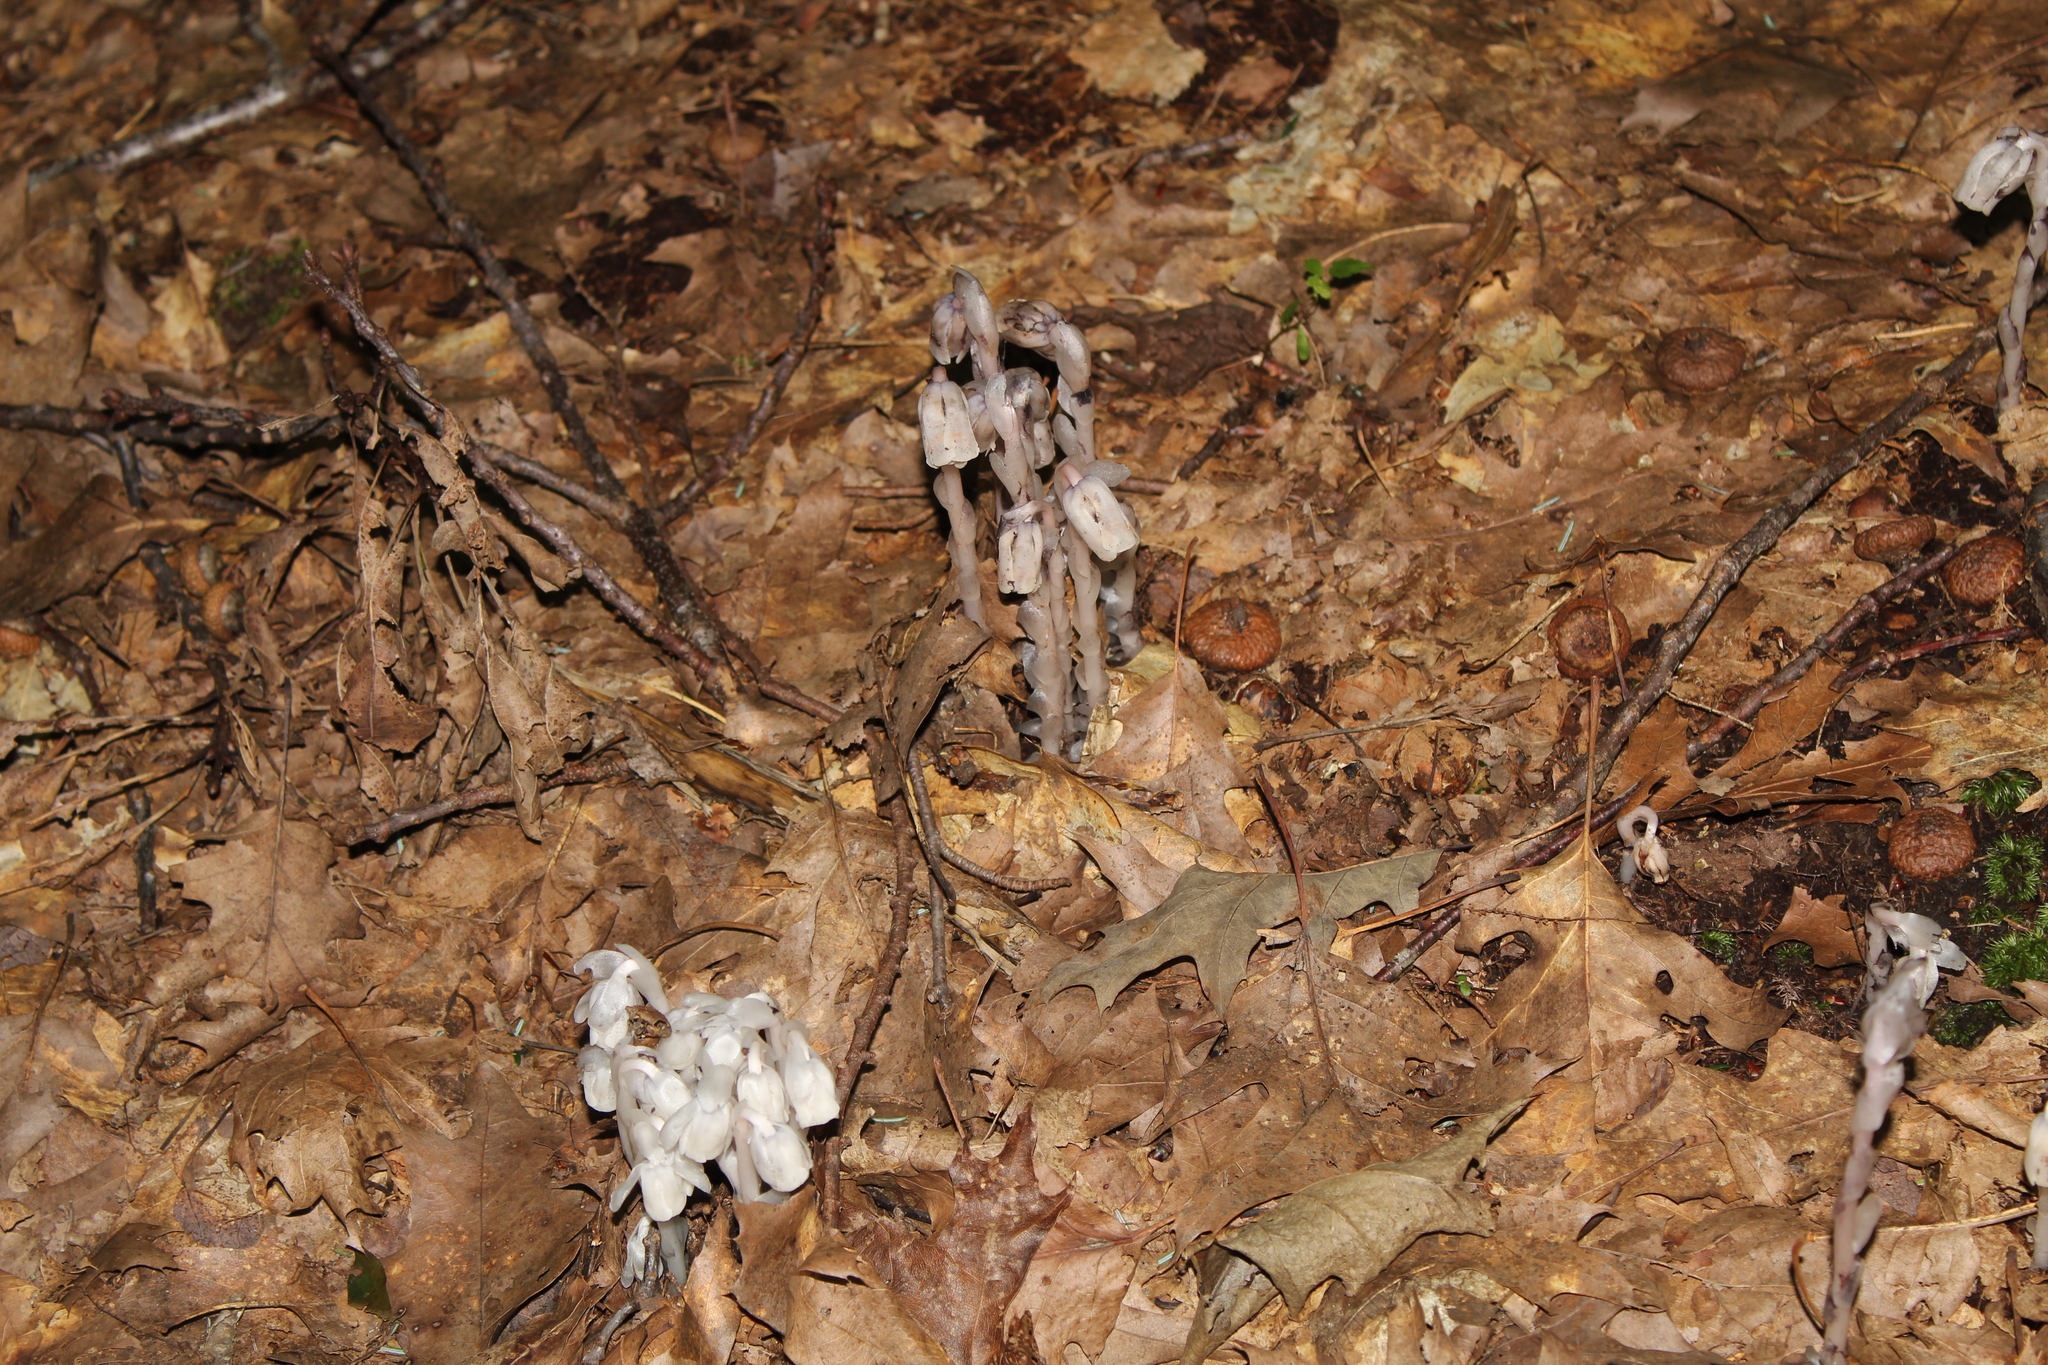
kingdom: Plantae
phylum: Tracheophyta
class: Magnoliopsida
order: Ericales
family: Ericaceae
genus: Monotropa
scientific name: Monotropa uniflora
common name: Convulsion root
